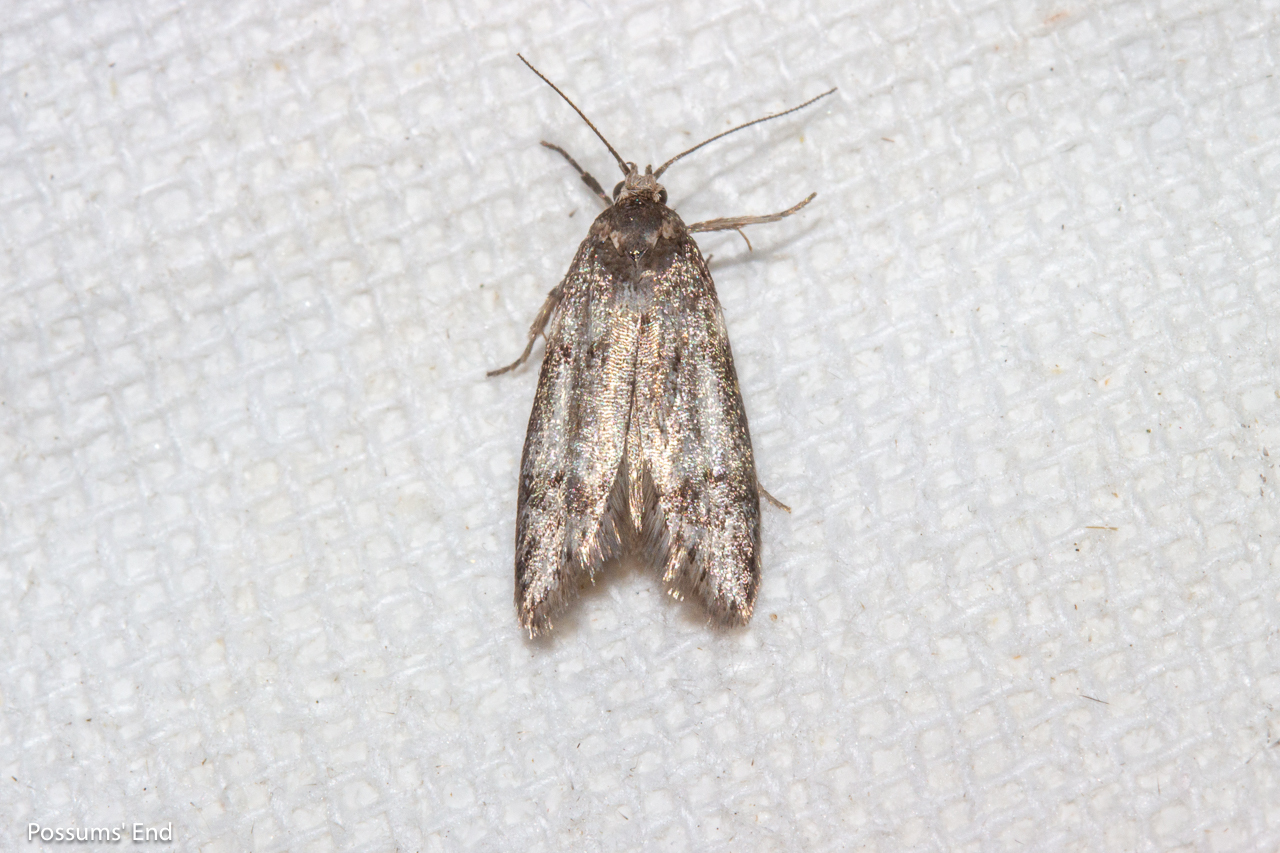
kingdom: Animalia
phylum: Arthropoda
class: Insecta
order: Lepidoptera
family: Oecophoridae
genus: Trachypepla
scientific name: Trachypepla indolescens
